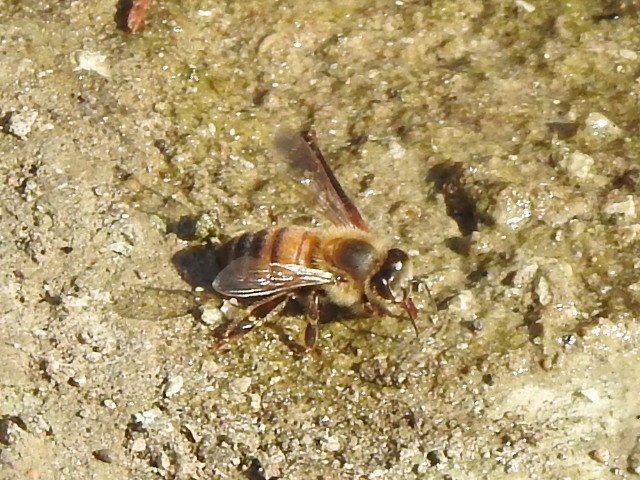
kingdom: Animalia
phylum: Arthropoda
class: Insecta
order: Hymenoptera
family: Apidae
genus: Apis
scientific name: Apis mellifera
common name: Honey bee
